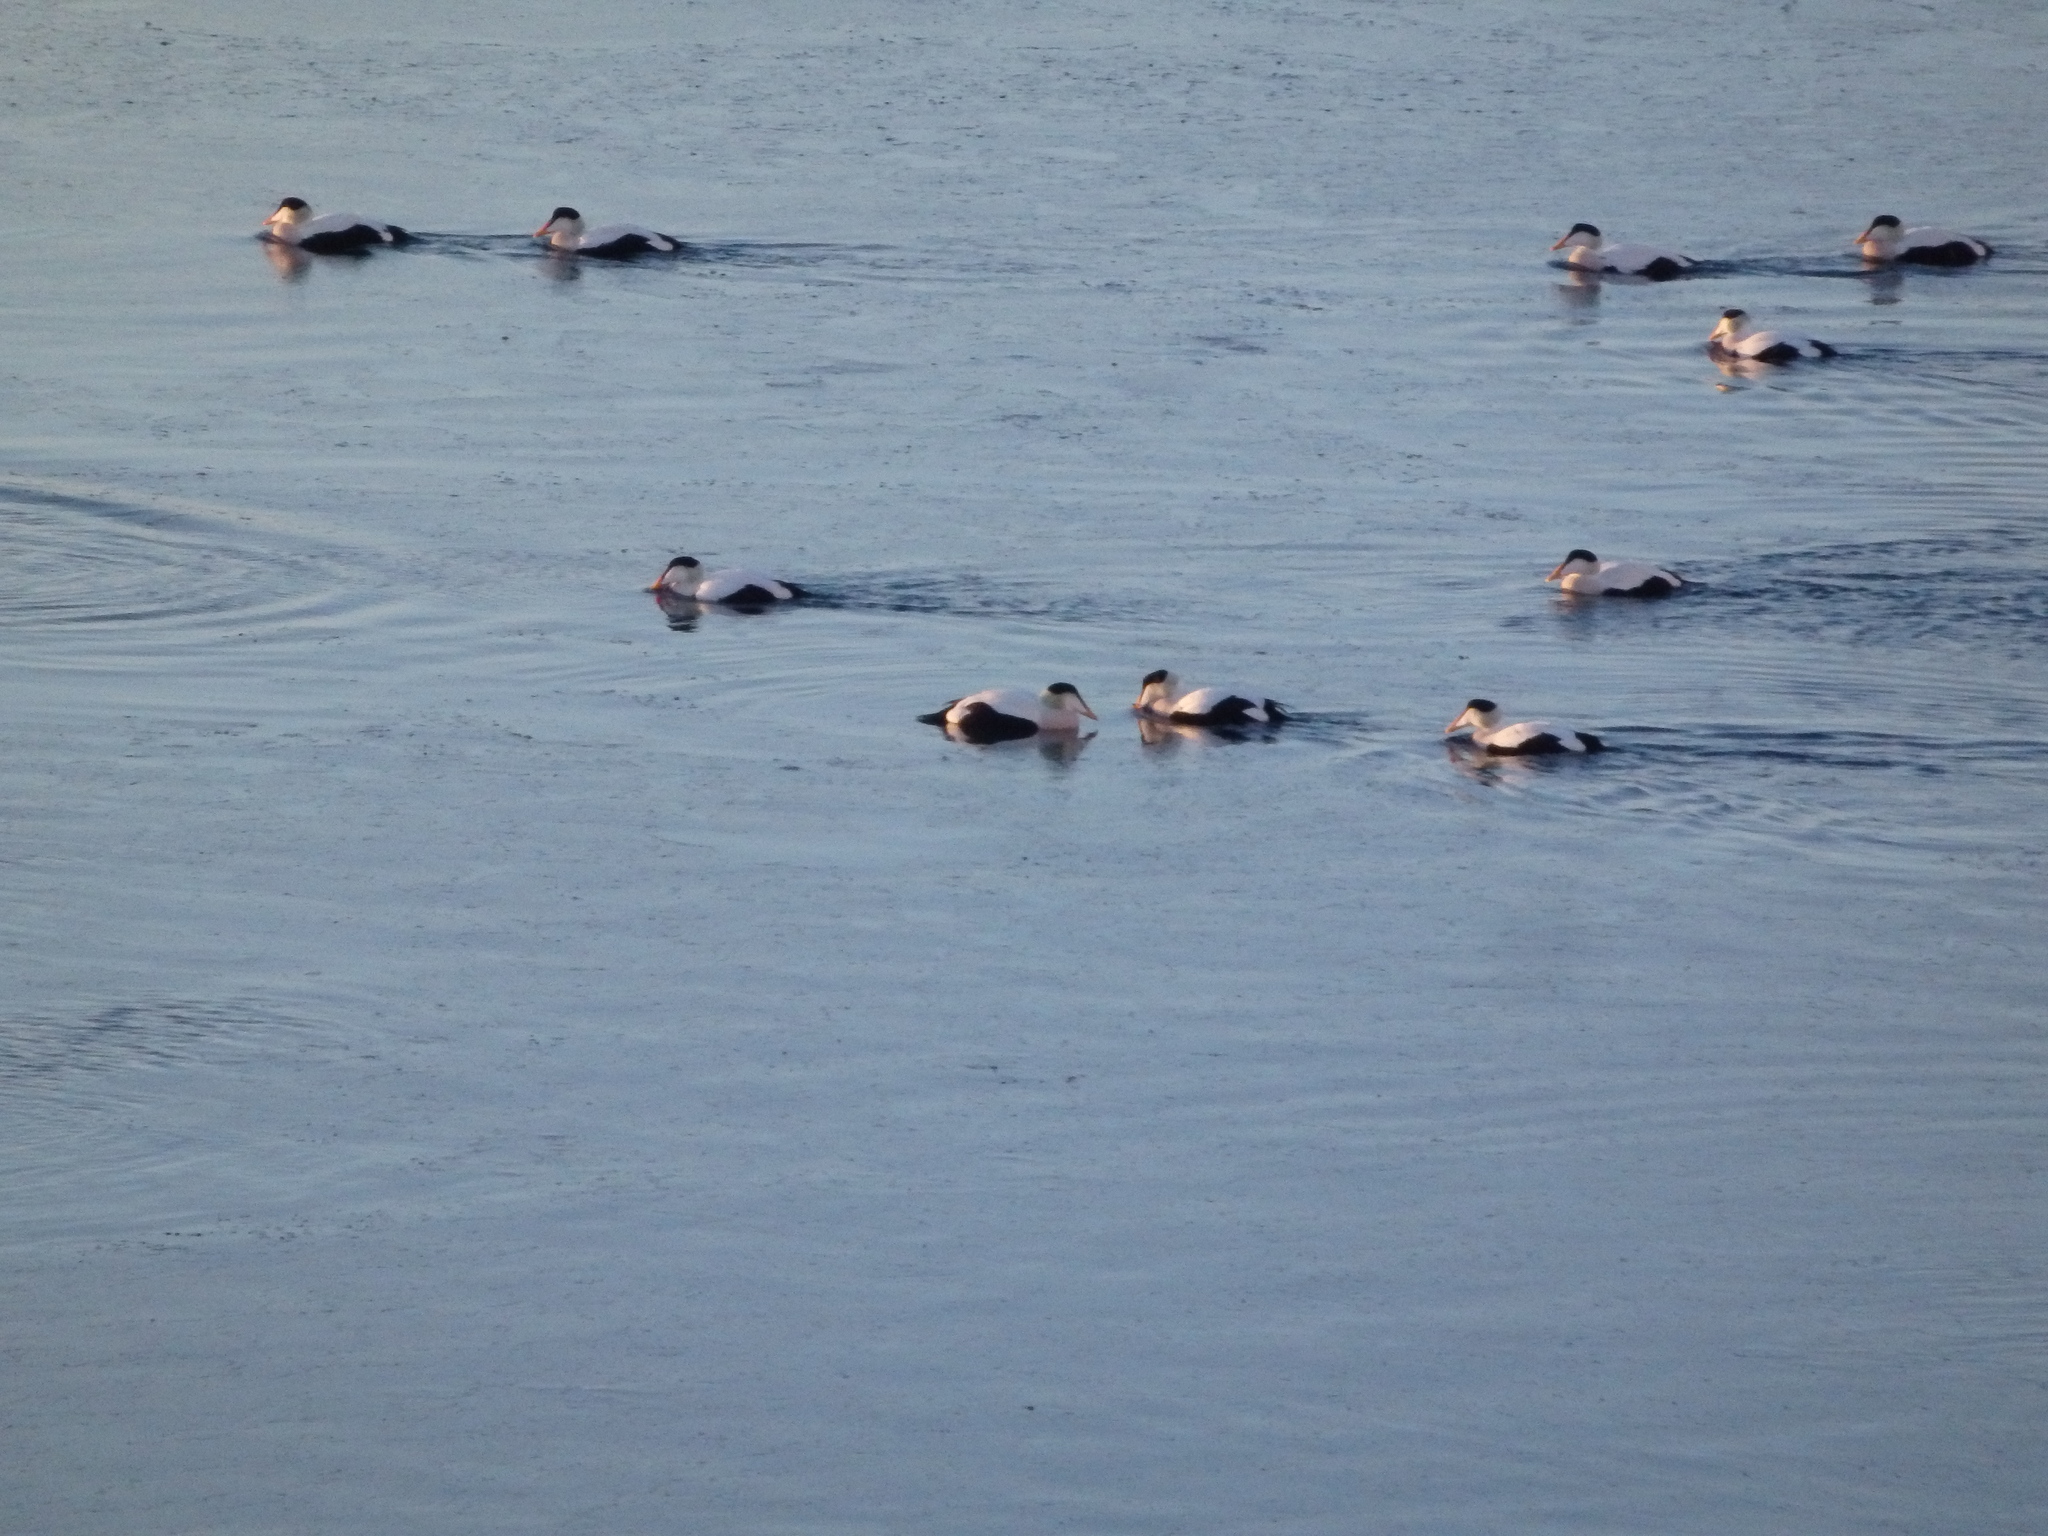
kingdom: Animalia
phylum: Chordata
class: Aves
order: Anseriformes
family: Anatidae
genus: Somateria
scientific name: Somateria mollissima
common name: Common eider
